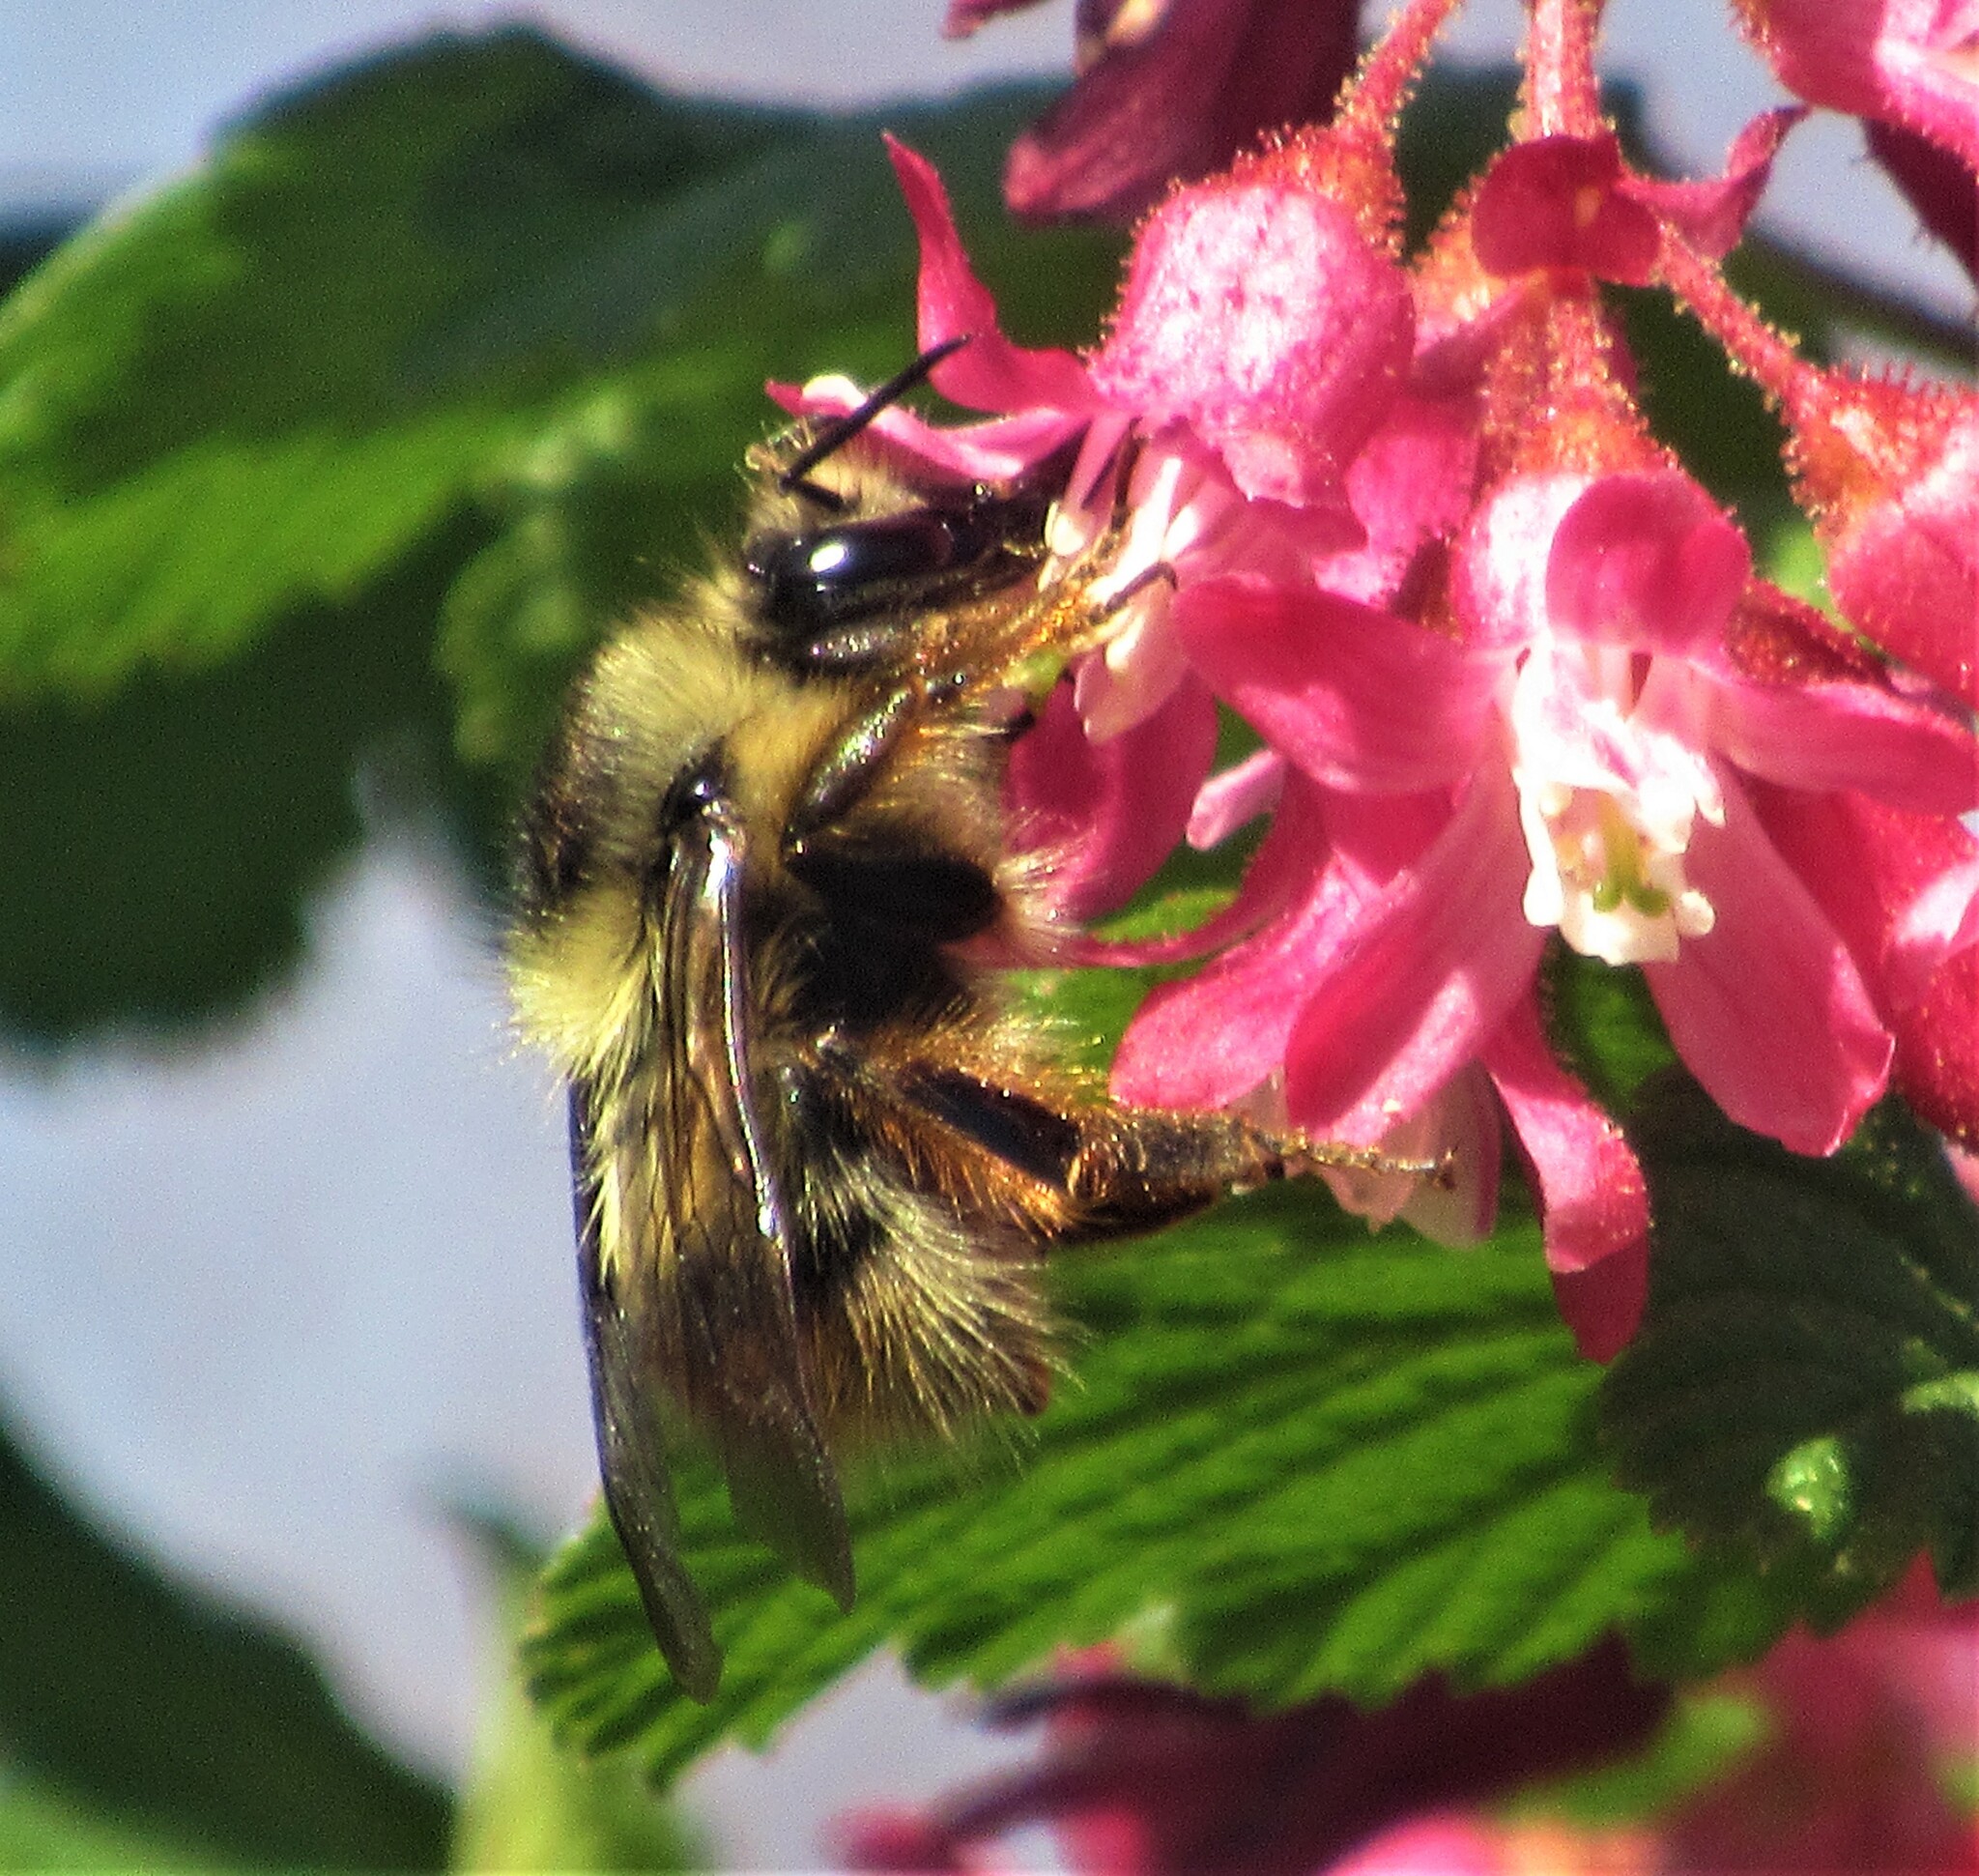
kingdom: Animalia
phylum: Arthropoda
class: Insecta
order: Hymenoptera
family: Apidae
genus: Bombus
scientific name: Bombus mixtus
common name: Fuzzy-horned bumble bee
